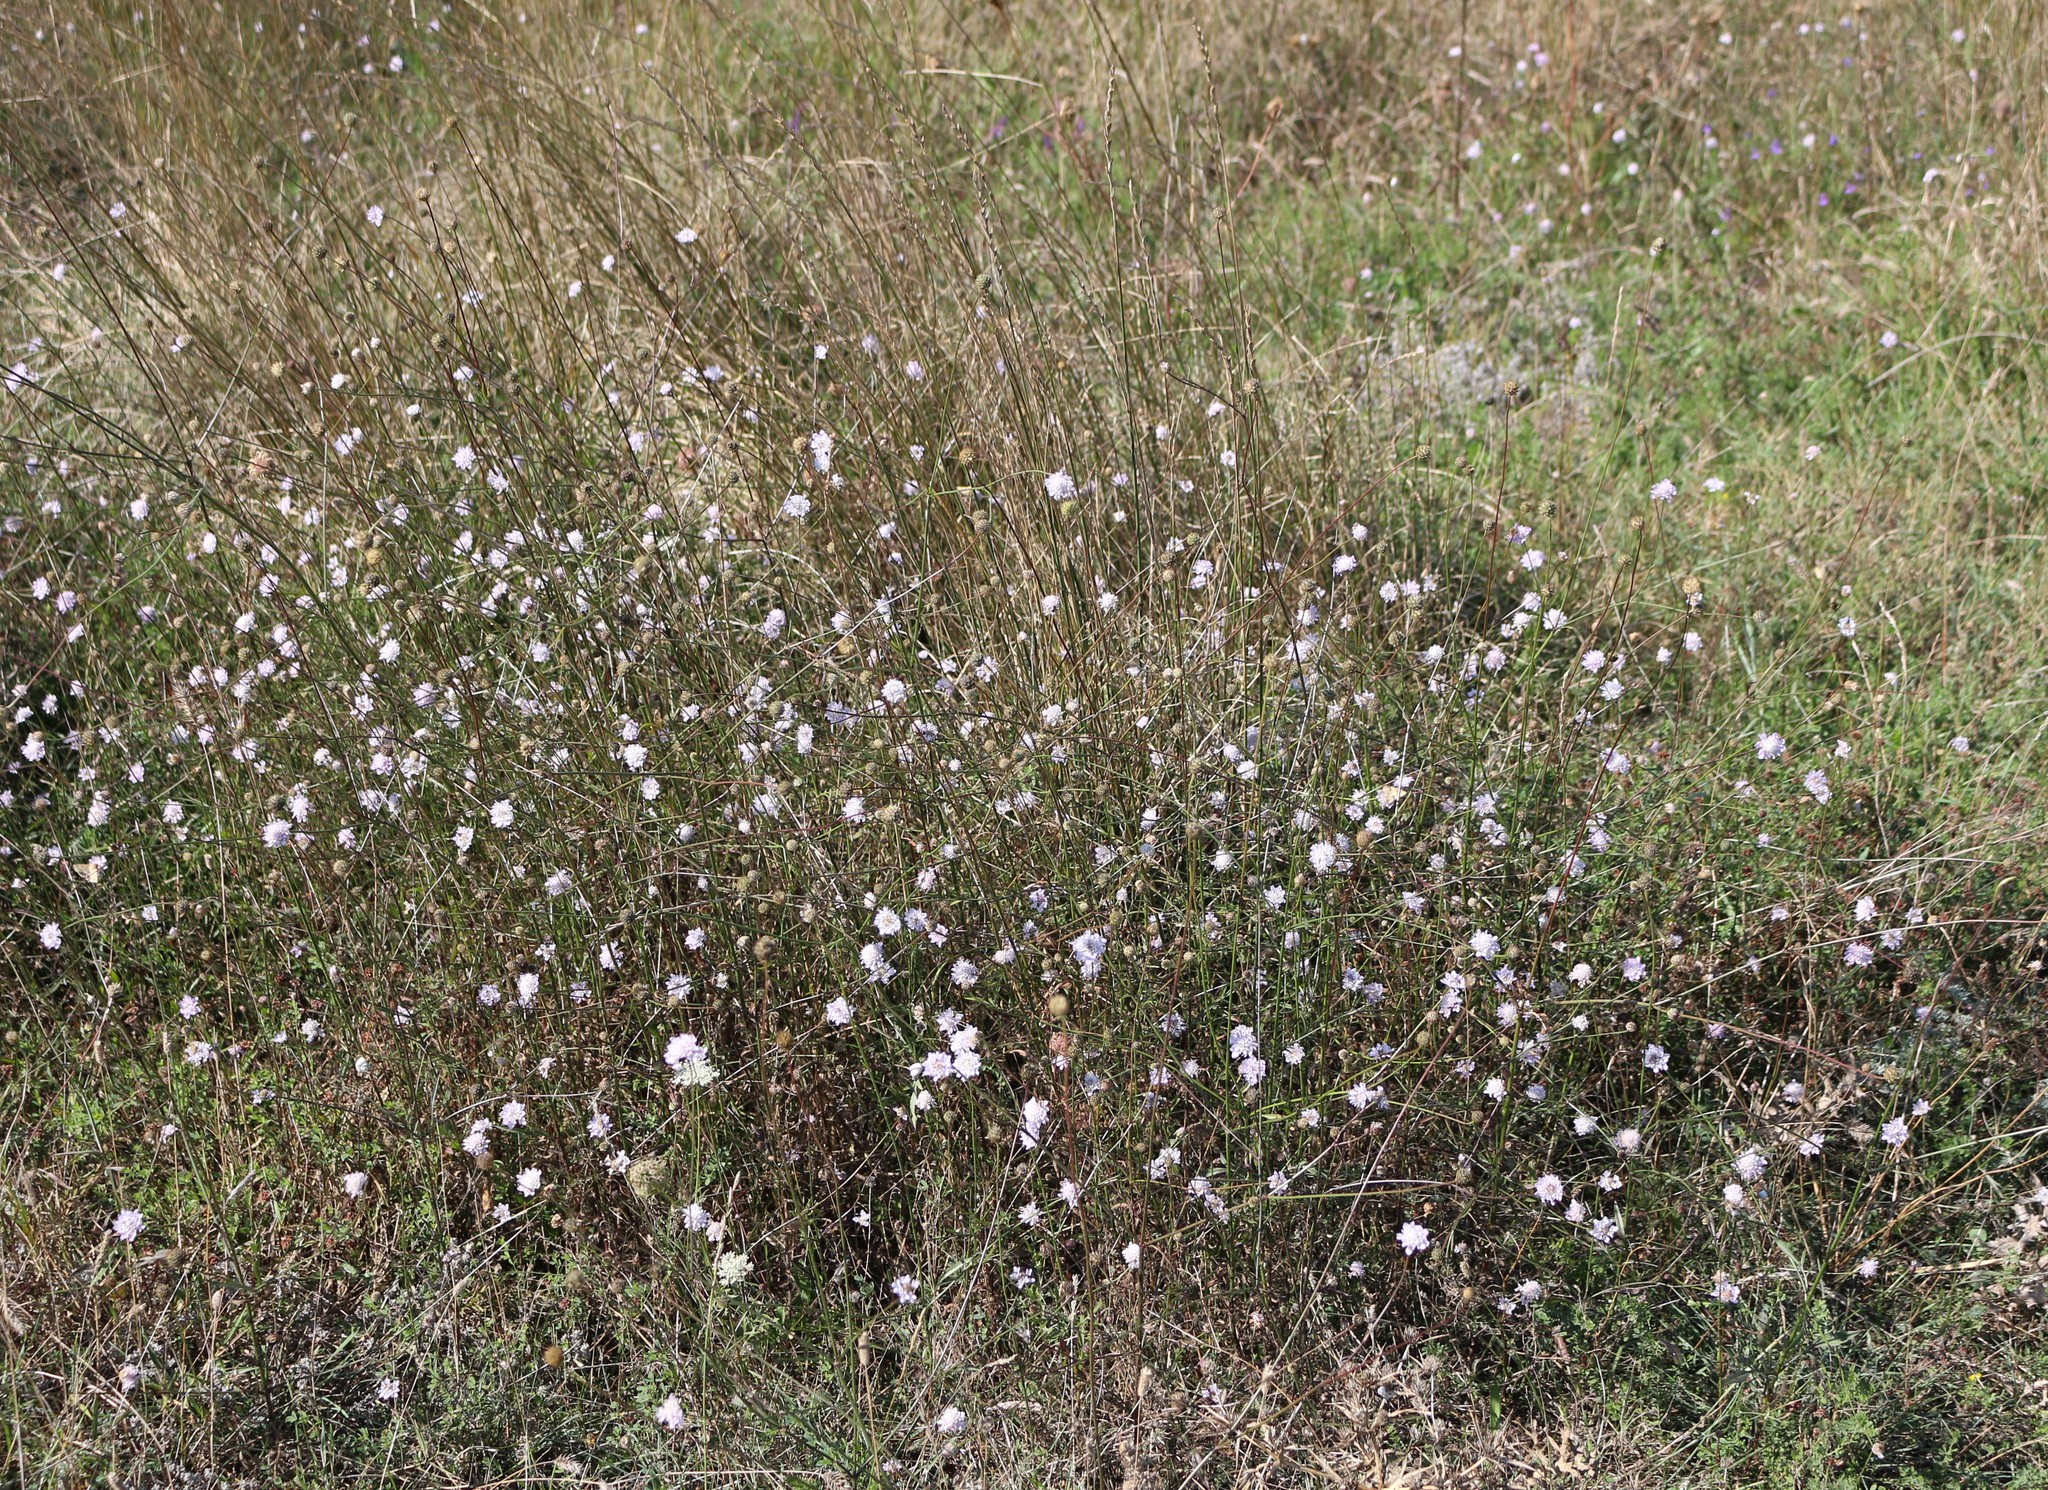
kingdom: Plantae
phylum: Tracheophyta
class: Magnoliopsida
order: Dipsacales
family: Caprifoliaceae
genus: Cephalaria
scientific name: Cephalaria transsylvanica
